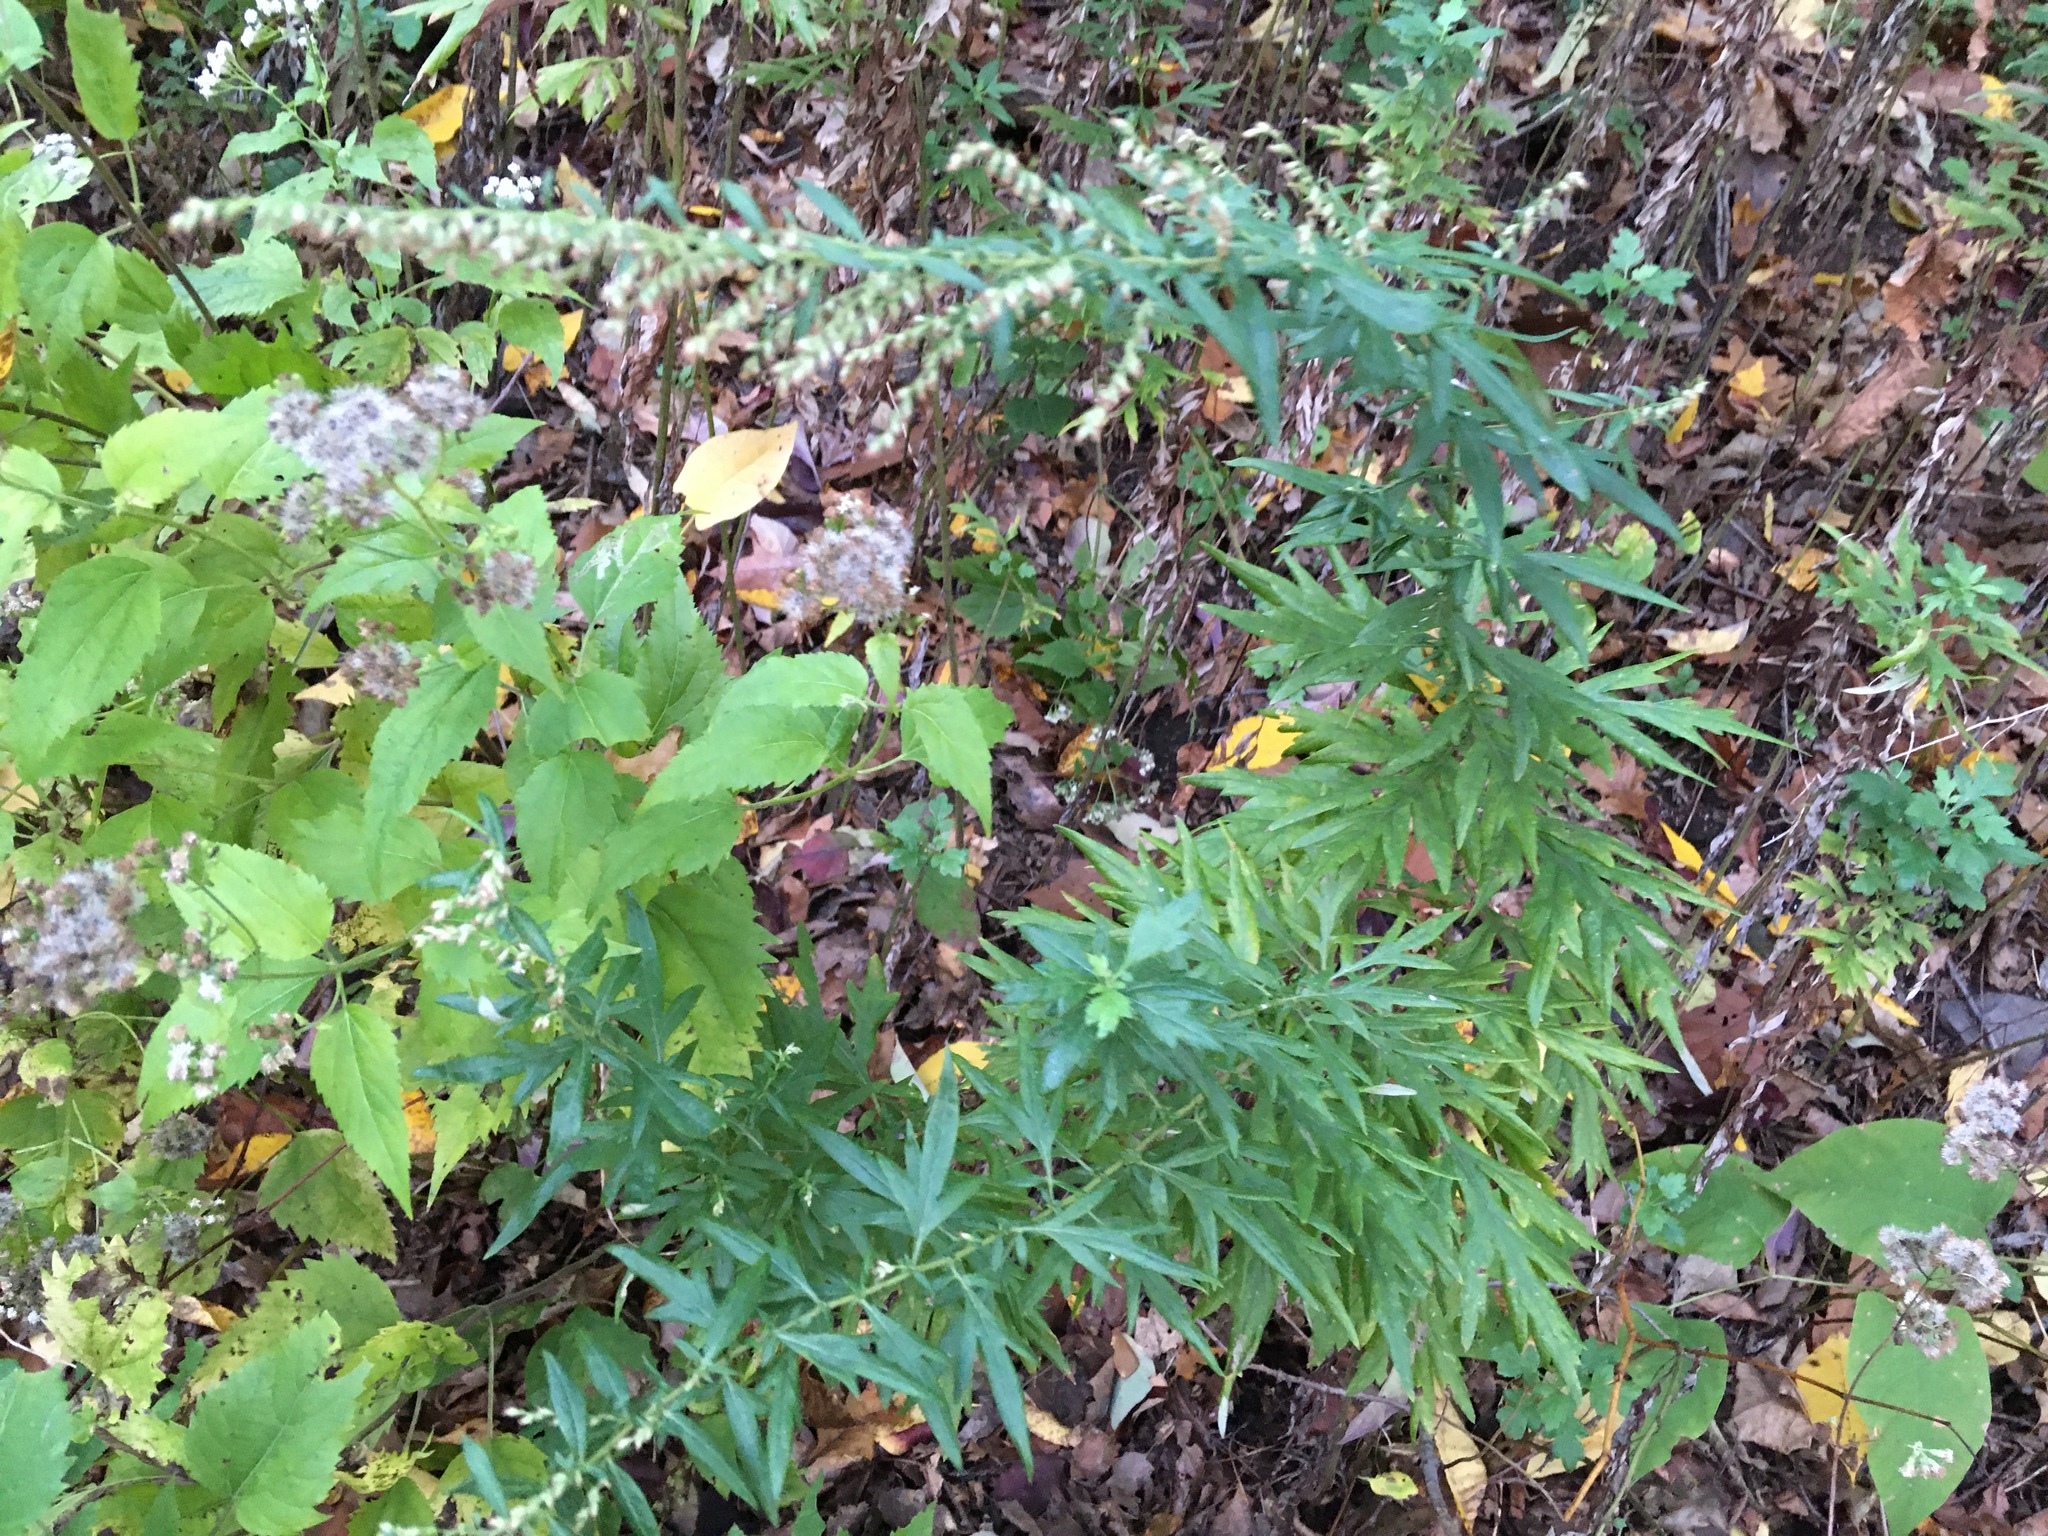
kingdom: Plantae
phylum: Tracheophyta
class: Magnoliopsida
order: Asterales
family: Asteraceae
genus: Artemisia
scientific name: Artemisia vulgaris
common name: Mugwort
